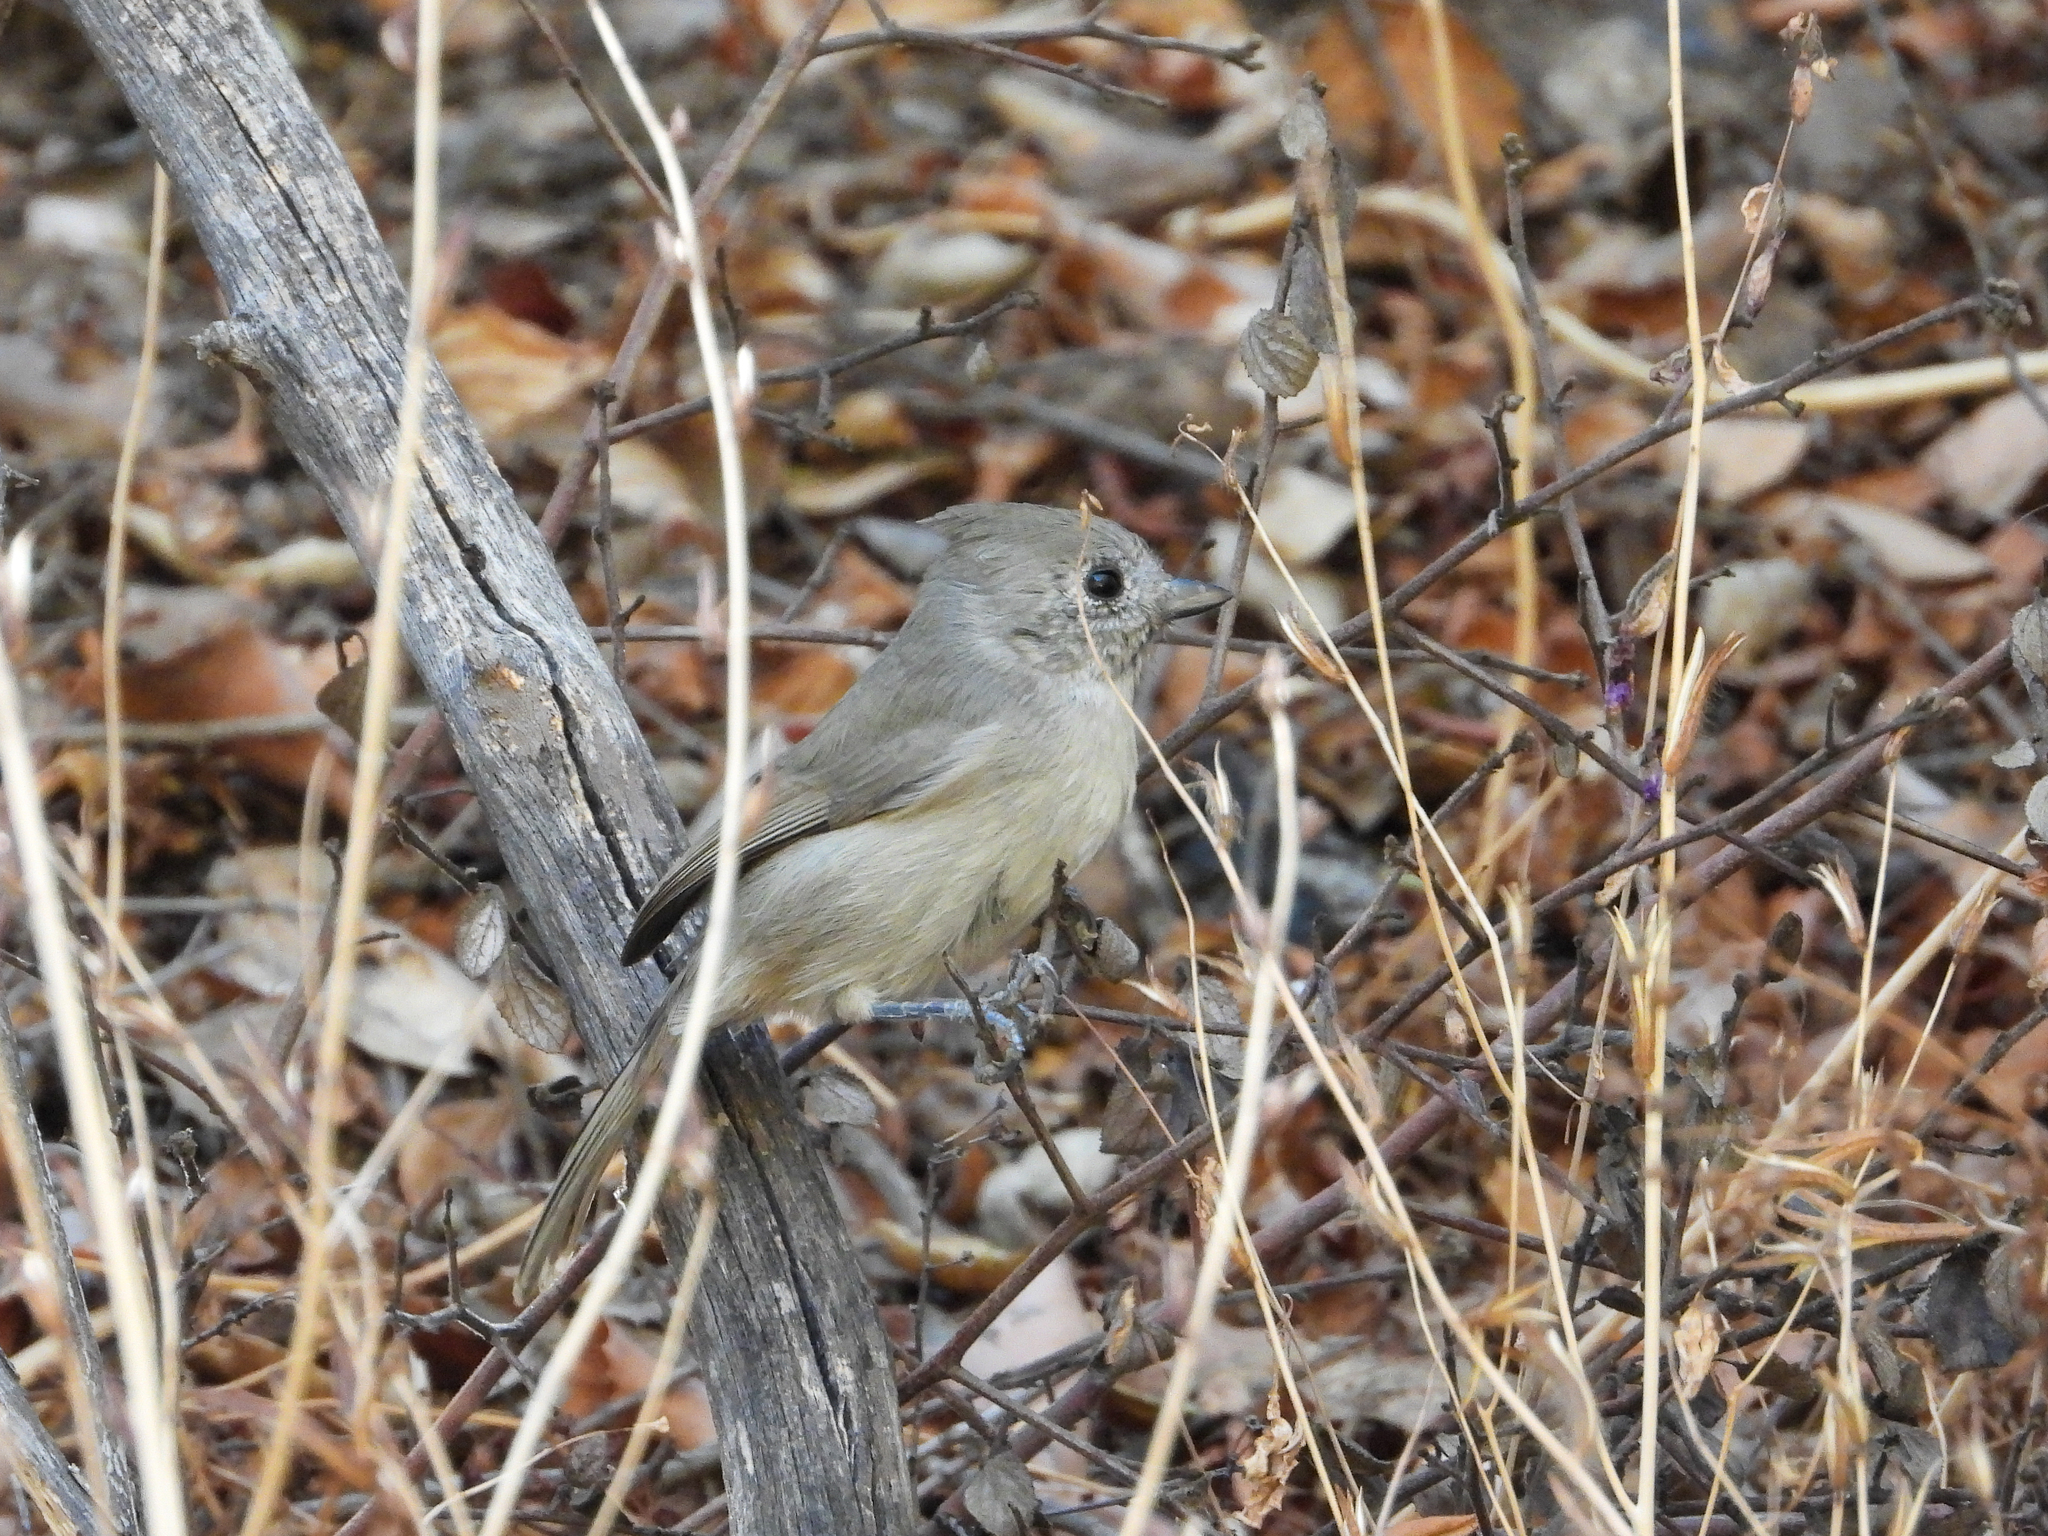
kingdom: Animalia
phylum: Chordata
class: Aves
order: Passeriformes
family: Paridae
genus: Baeolophus
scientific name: Baeolophus inornatus
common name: Oak titmouse
